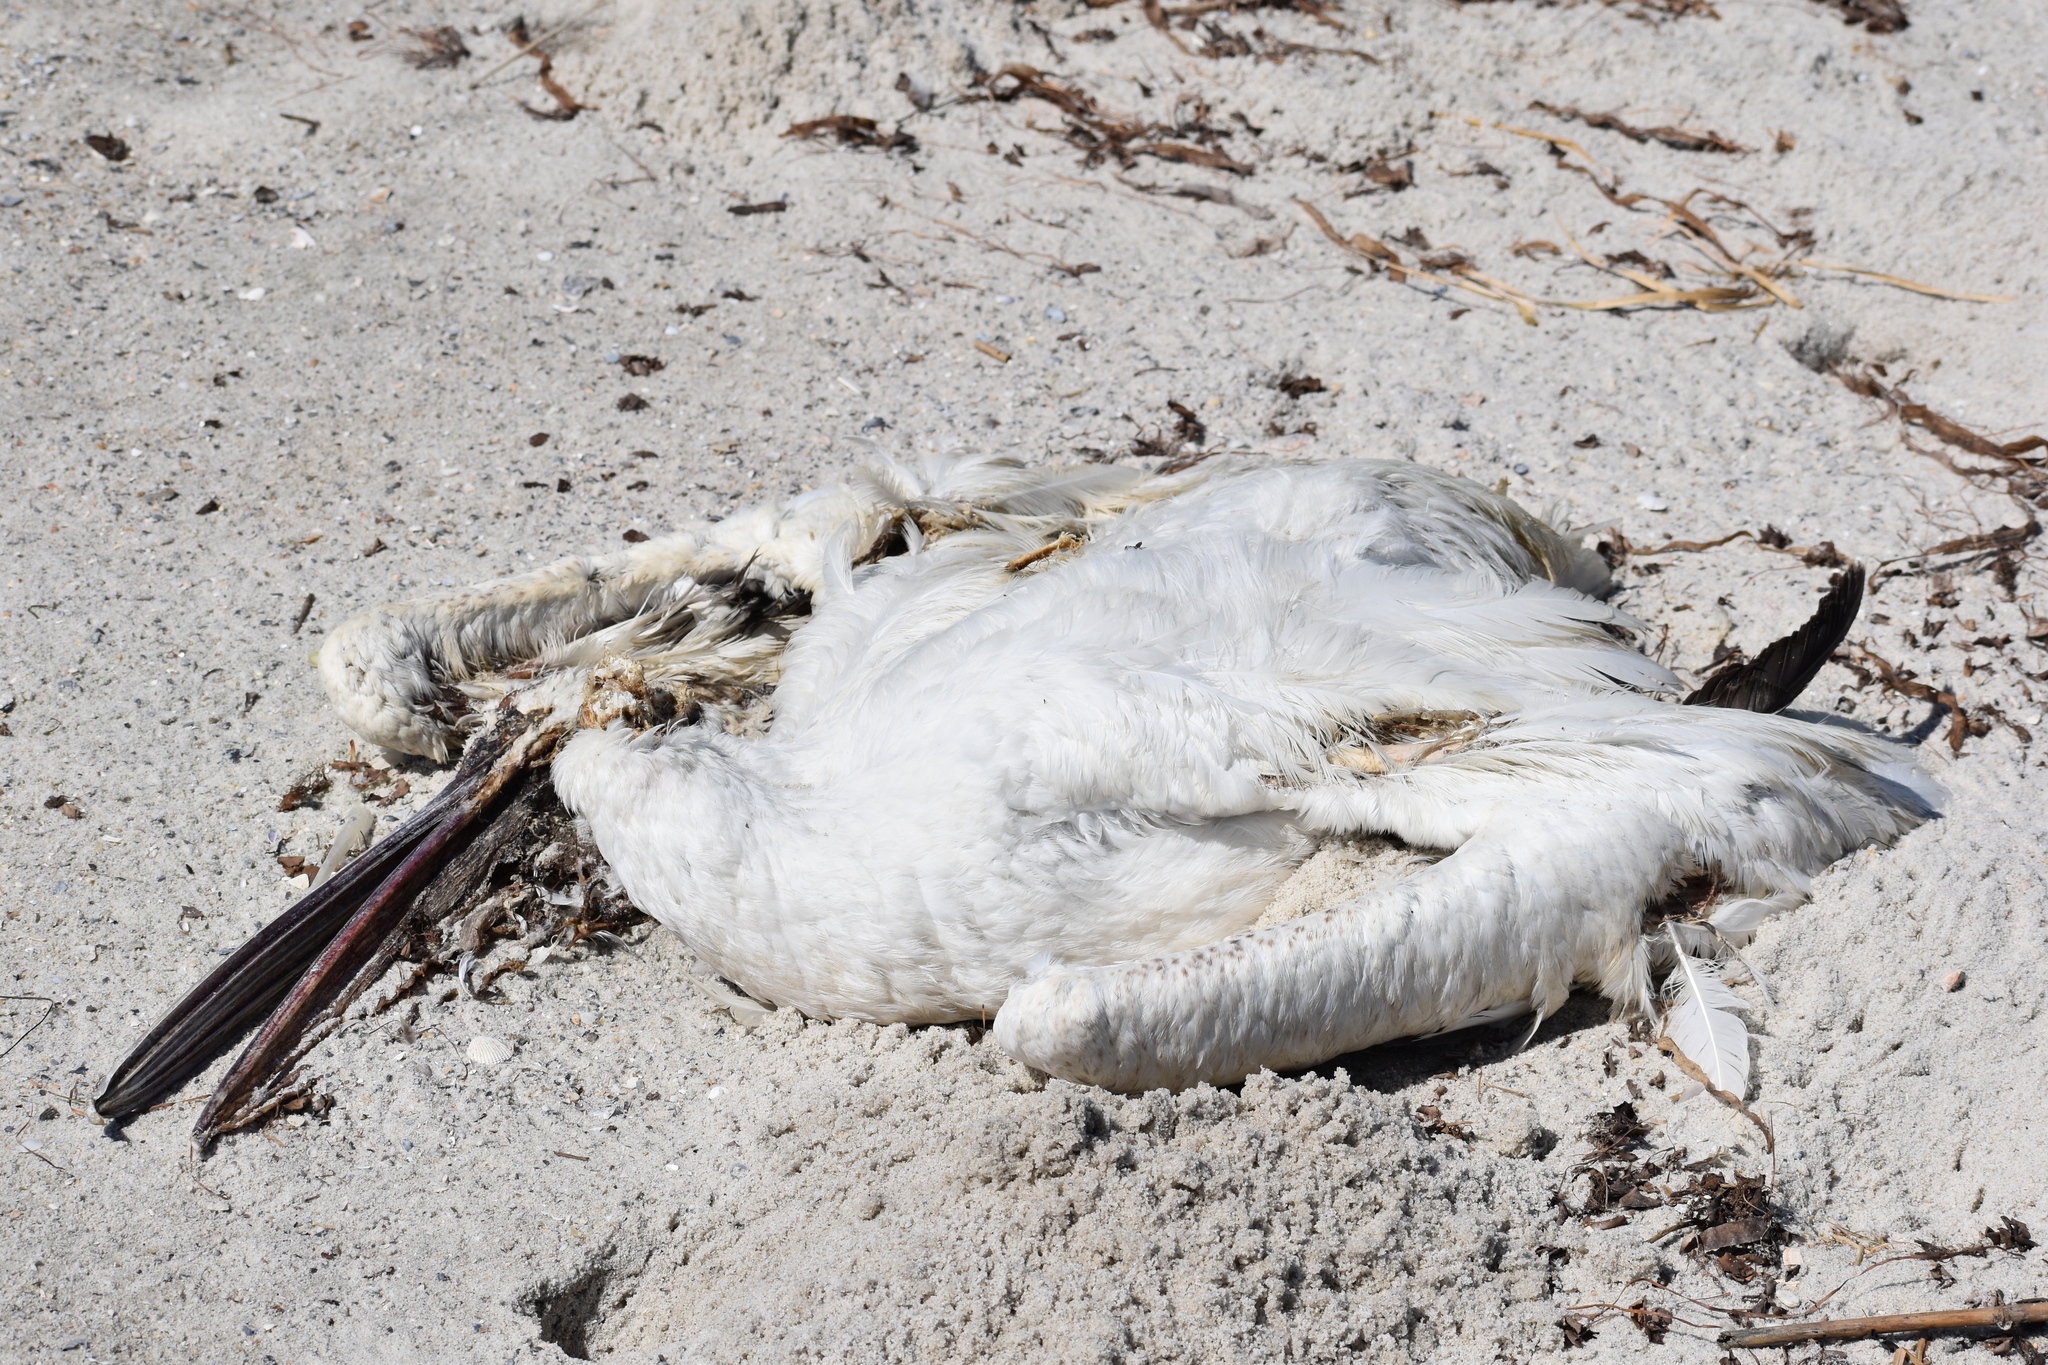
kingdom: Animalia
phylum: Chordata
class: Aves
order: Pelecaniformes
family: Pelecanidae
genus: Pelecanus
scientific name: Pelecanus erythrorhynchos
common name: American white pelican
